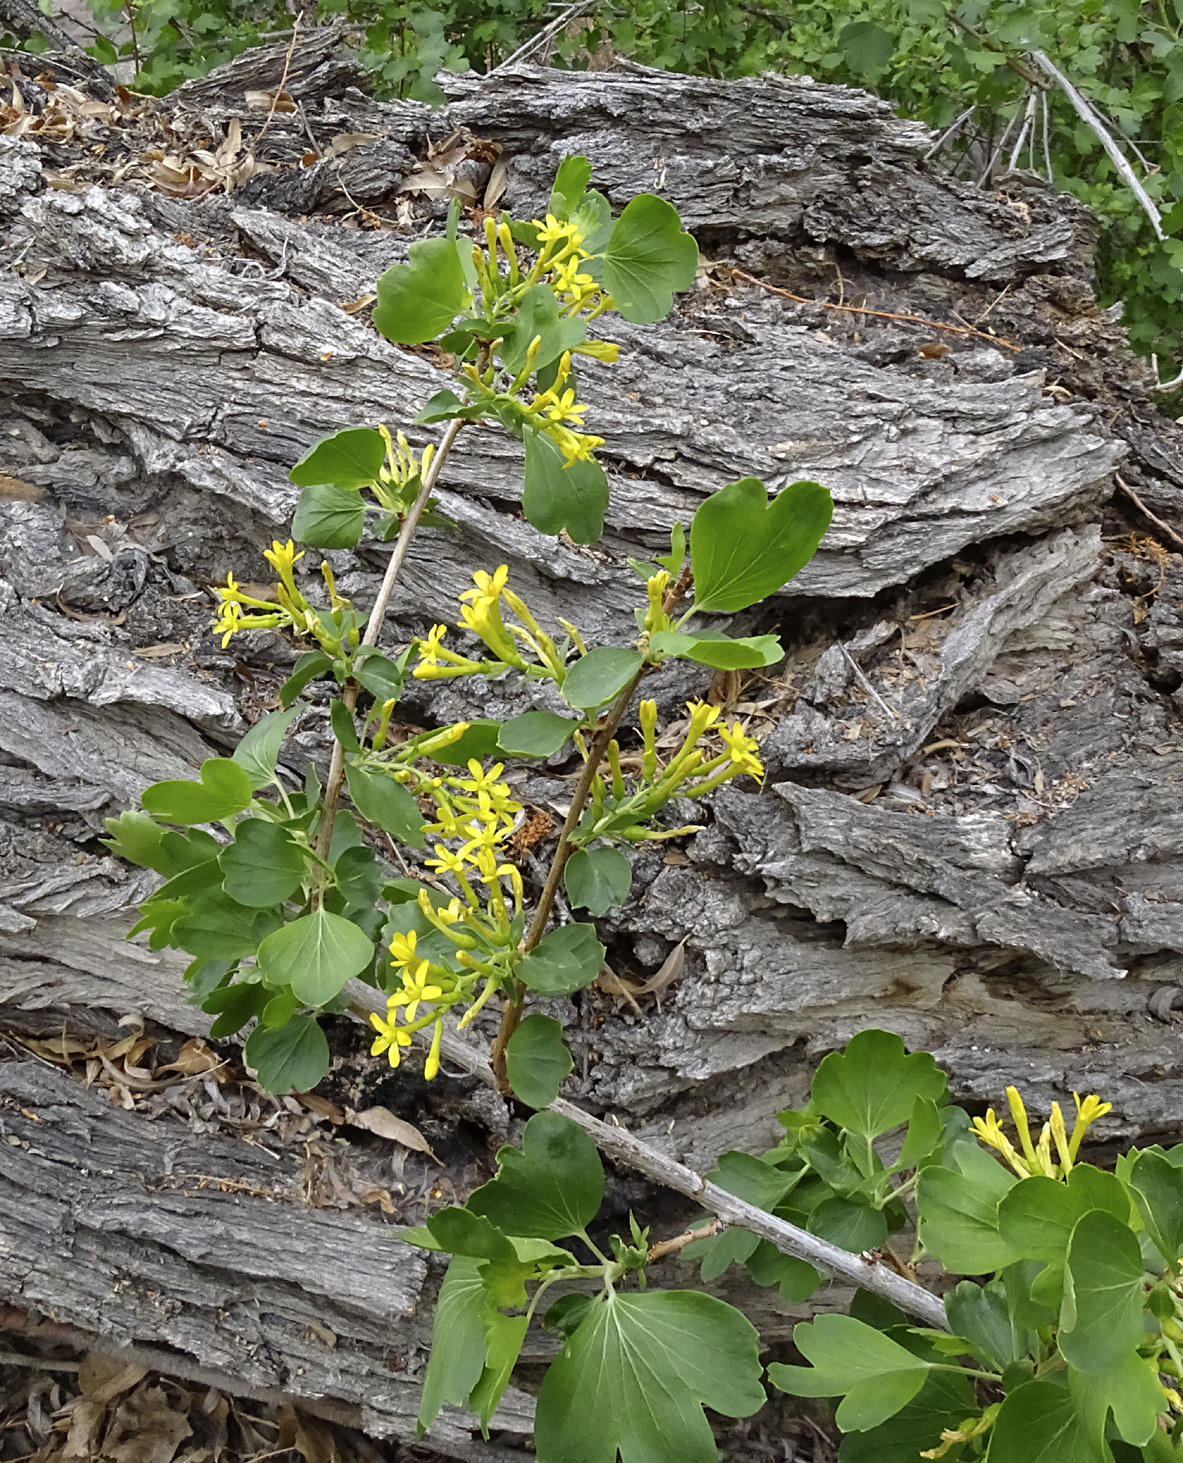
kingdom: Plantae
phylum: Tracheophyta
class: Magnoliopsida
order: Saxifragales
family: Grossulariaceae
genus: Ribes
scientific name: Ribes aureum
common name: Golden currant
